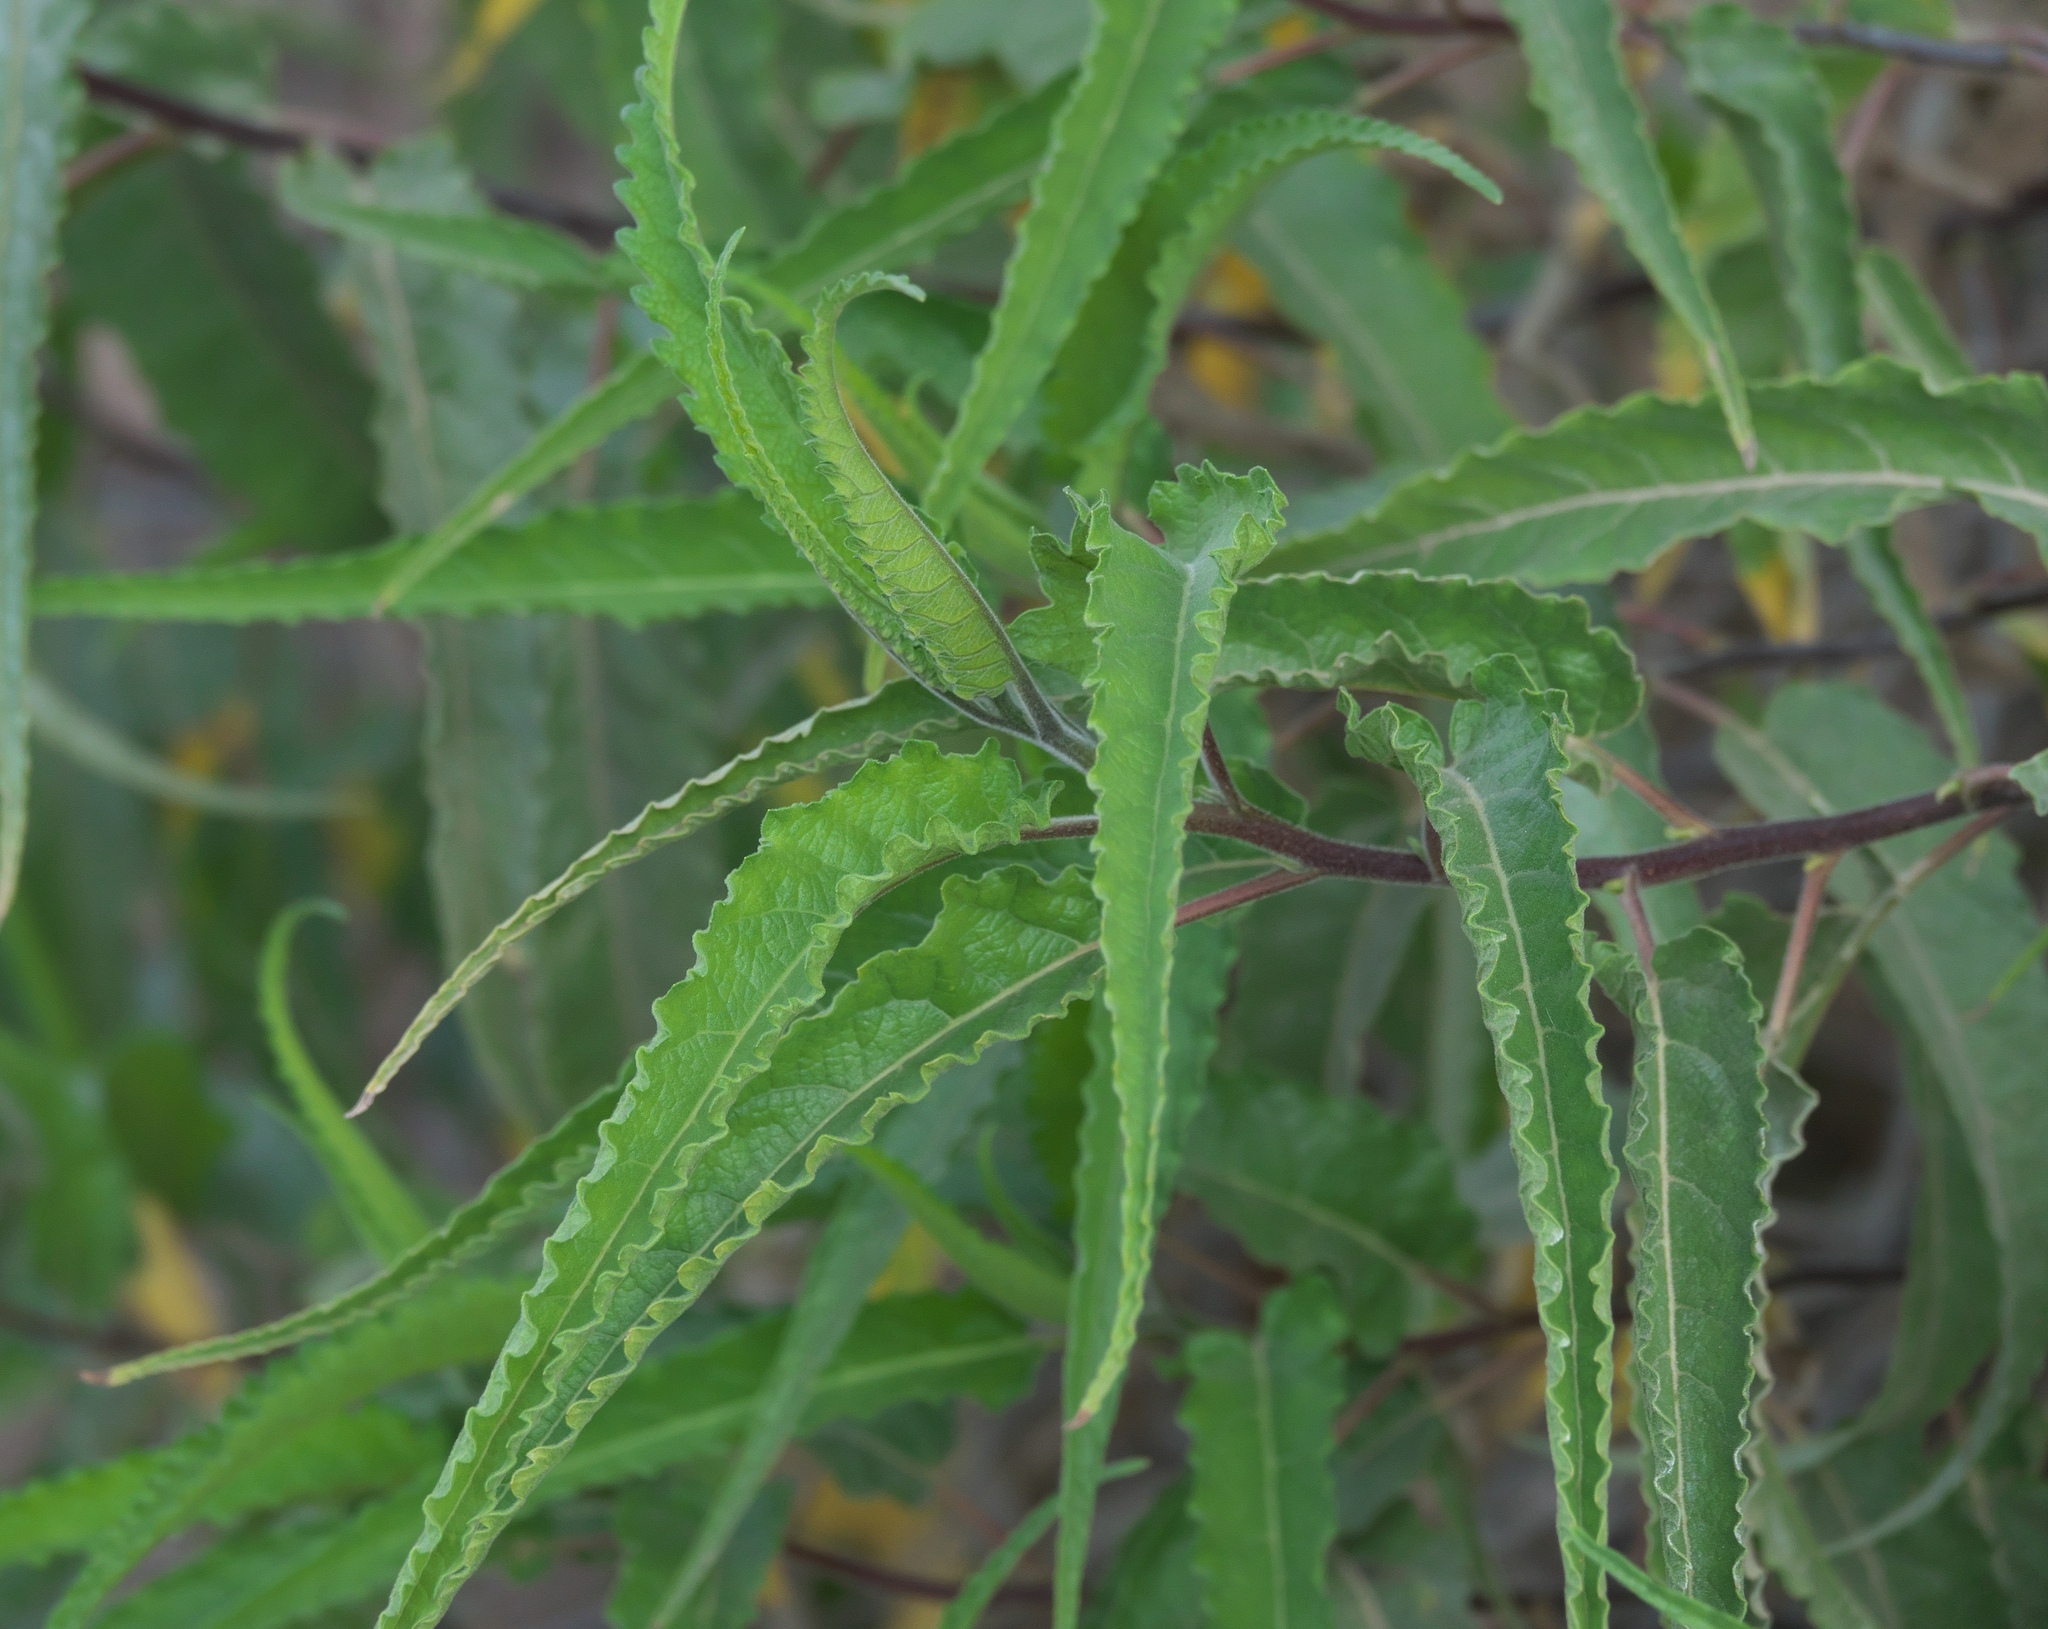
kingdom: Plantae
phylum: Tracheophyta
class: Magnoliopsida
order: Asterales
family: Asteraceae
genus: Ambrosia
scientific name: Ambrosia ambrosioides
